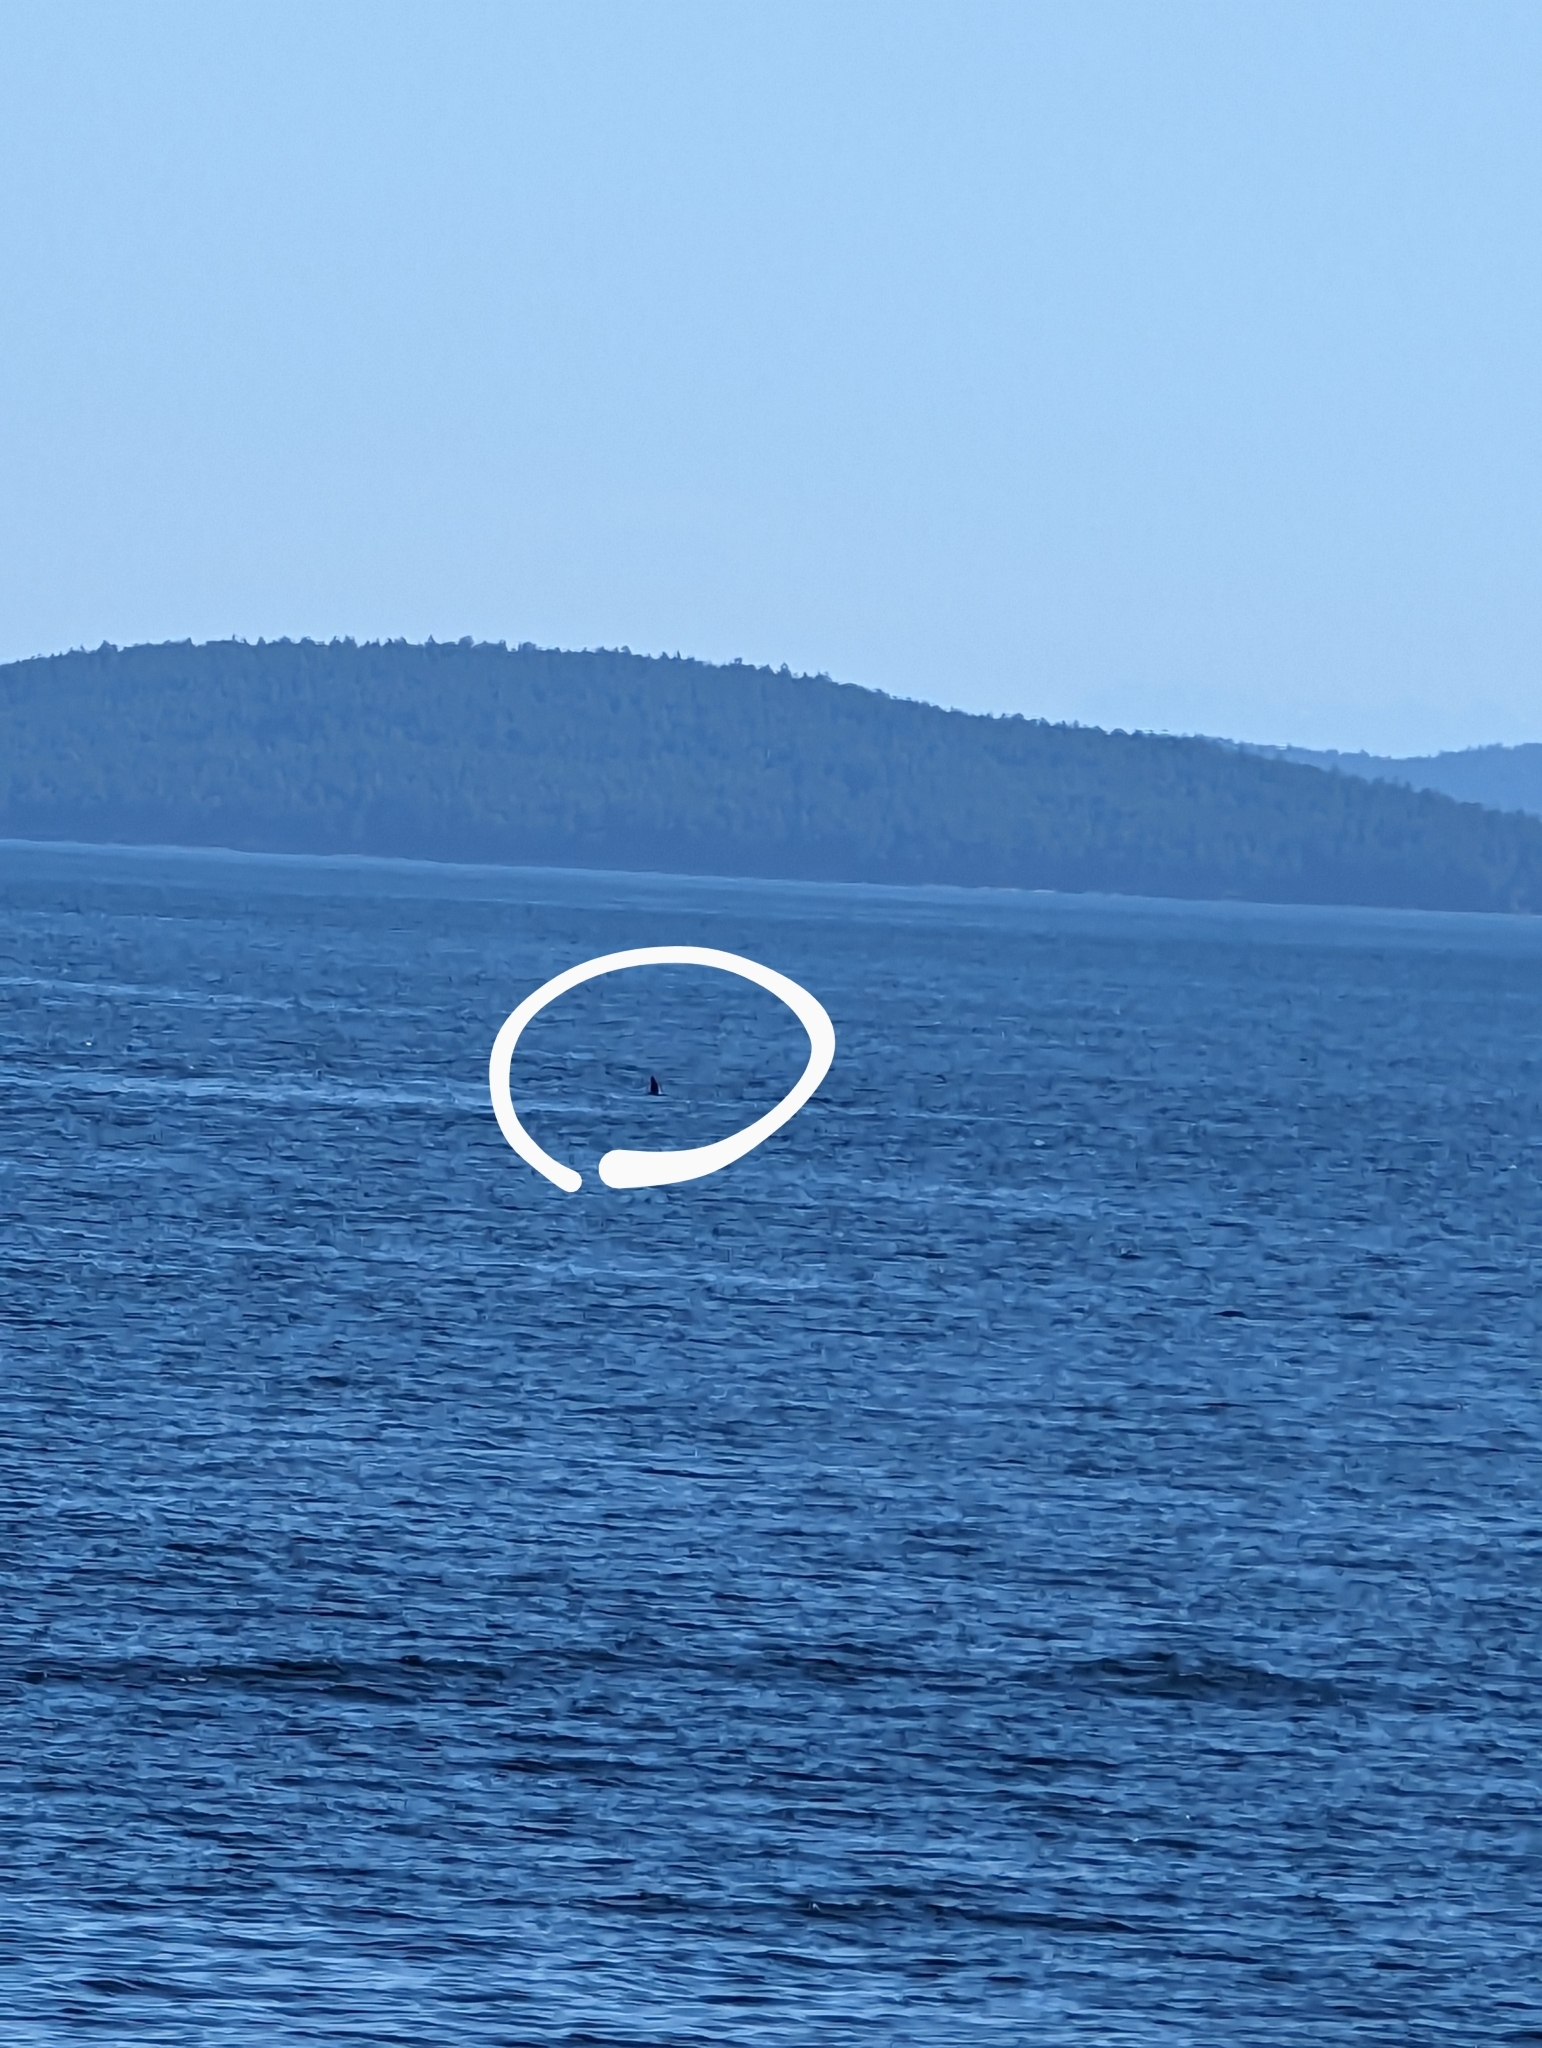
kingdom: Animalia
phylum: Chordata
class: Mammalia
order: Cetacea
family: Delphinidae
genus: Orcinus
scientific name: Orcinus orca
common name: Killer whale
